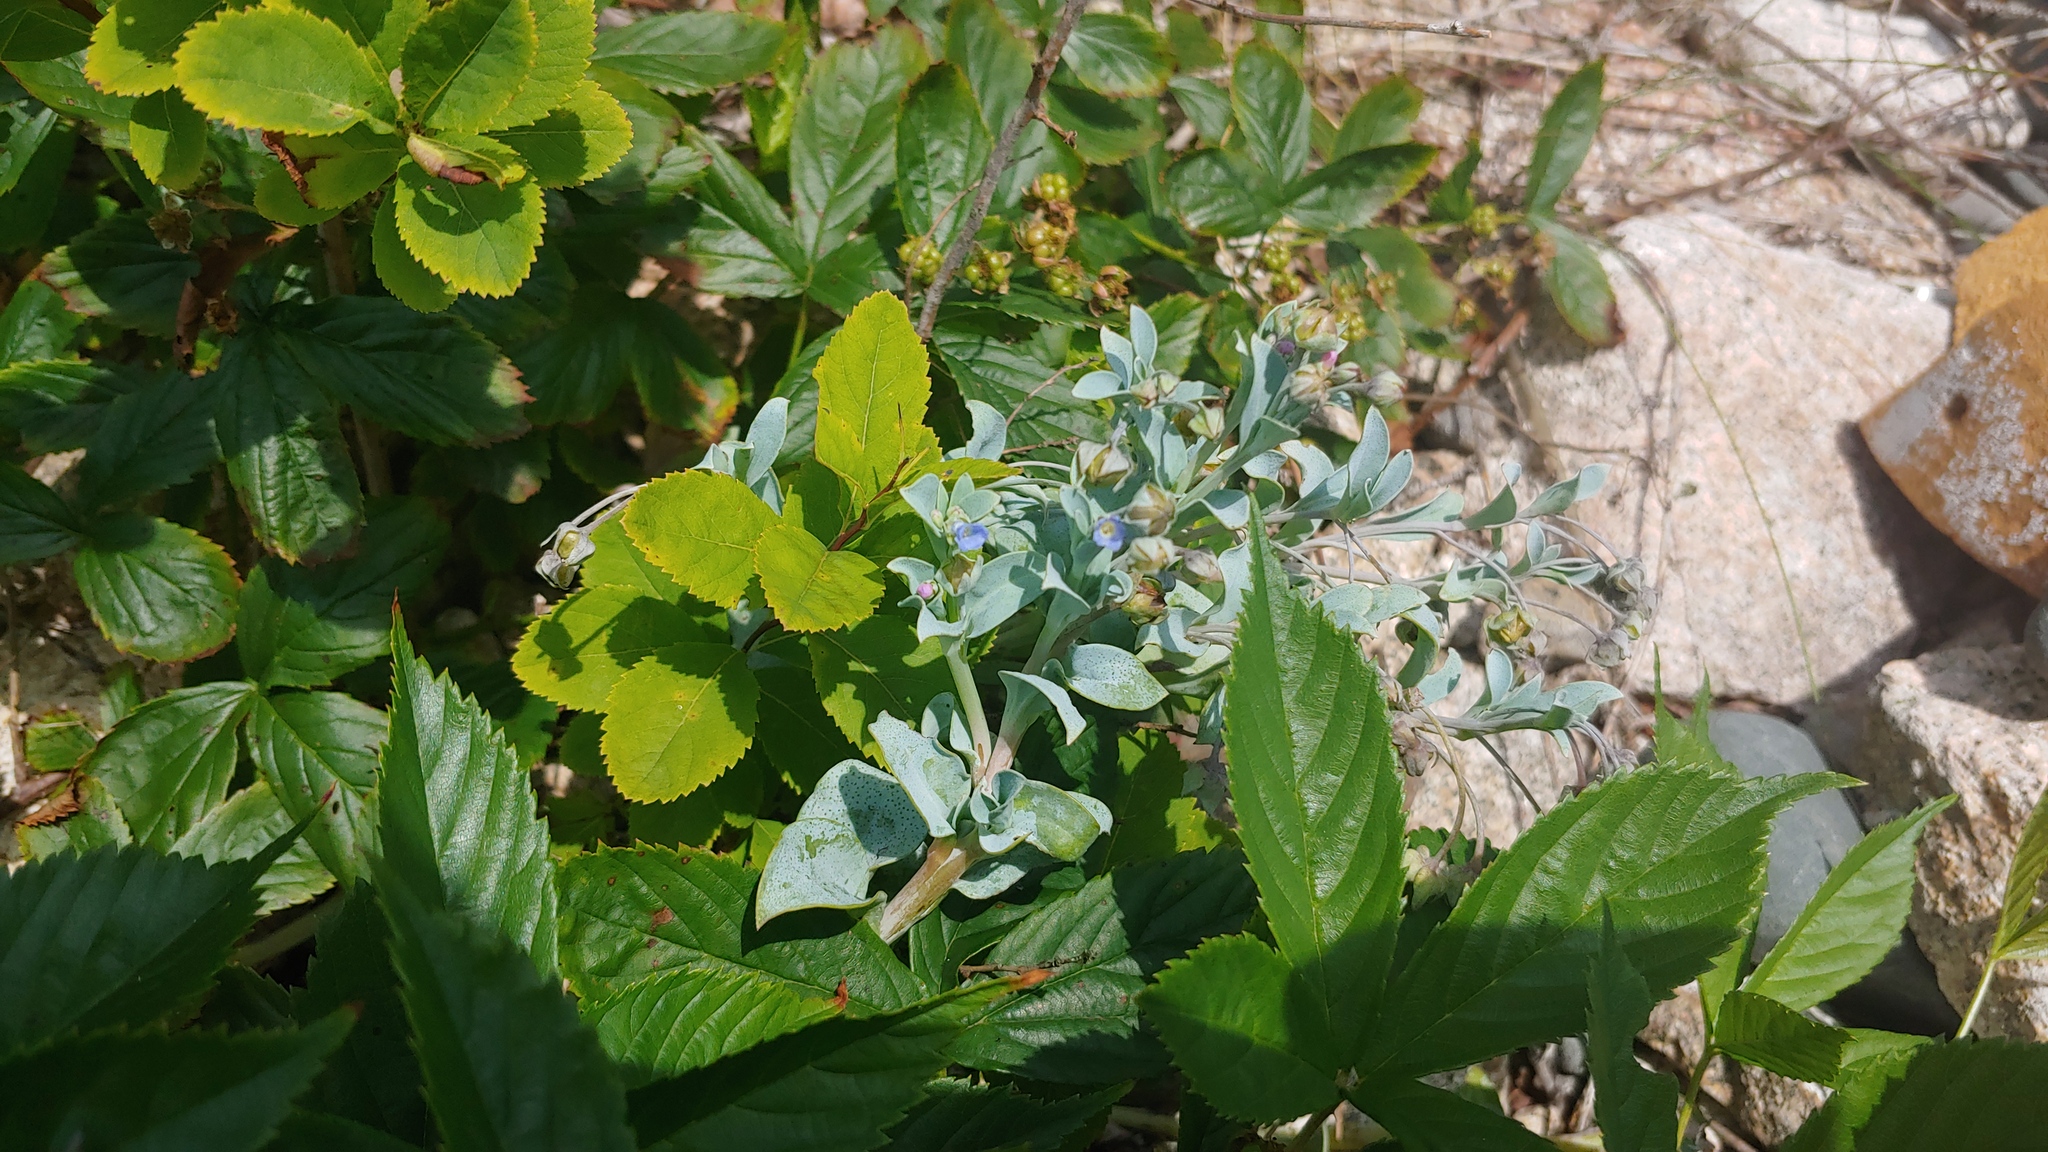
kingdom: Plantae
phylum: Tracheophyta
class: Magnoliopsida
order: Boraginales
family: Boraginaceae
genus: Mertensia
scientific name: Mertensia maritima
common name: Oysterplant
